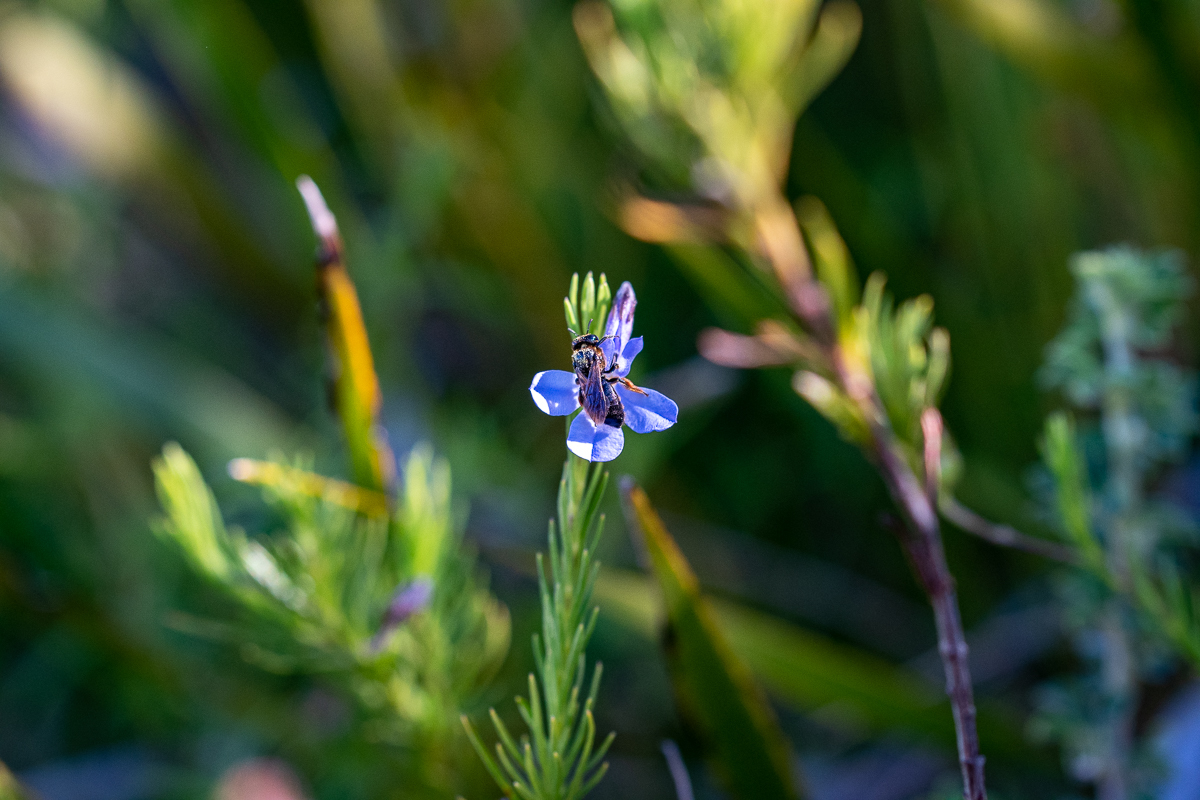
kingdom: Plantae
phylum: Tracheophyta
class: Magnoliopsida
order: Asterales
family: Campanulaceae
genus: Lobelia
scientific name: Lobelia pinifolia
